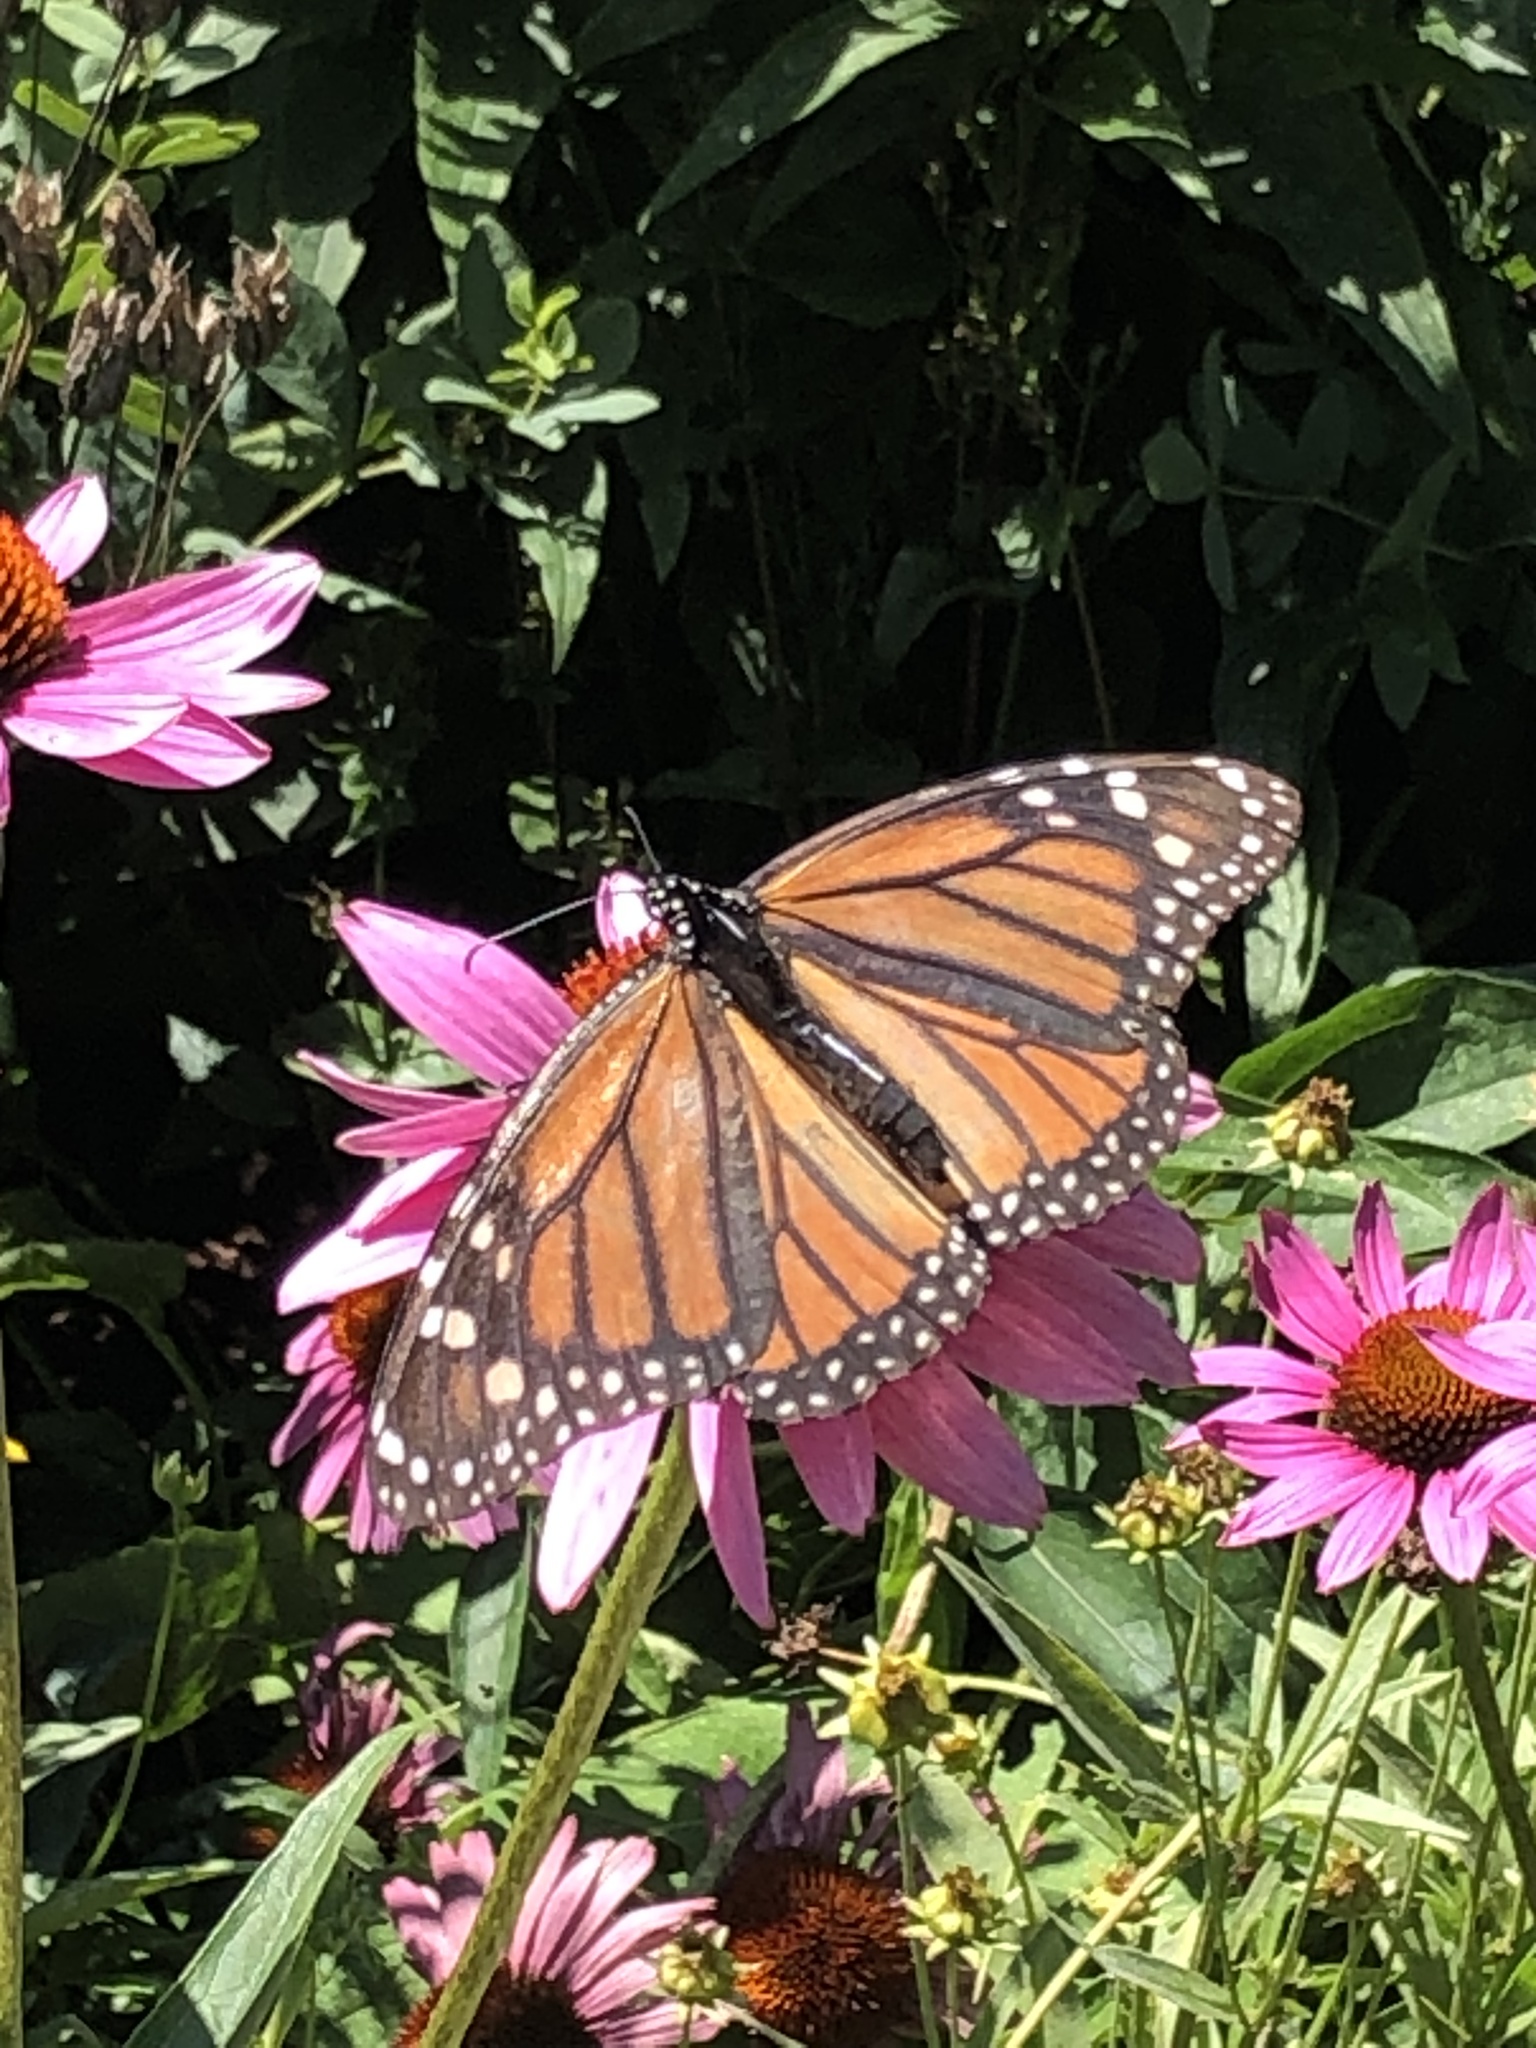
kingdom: Animalia
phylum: Arthropoda
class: Insecta
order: Lepidoptera
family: Nymphalidae
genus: Danaus
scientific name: Danaus plexippus
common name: Monarch
